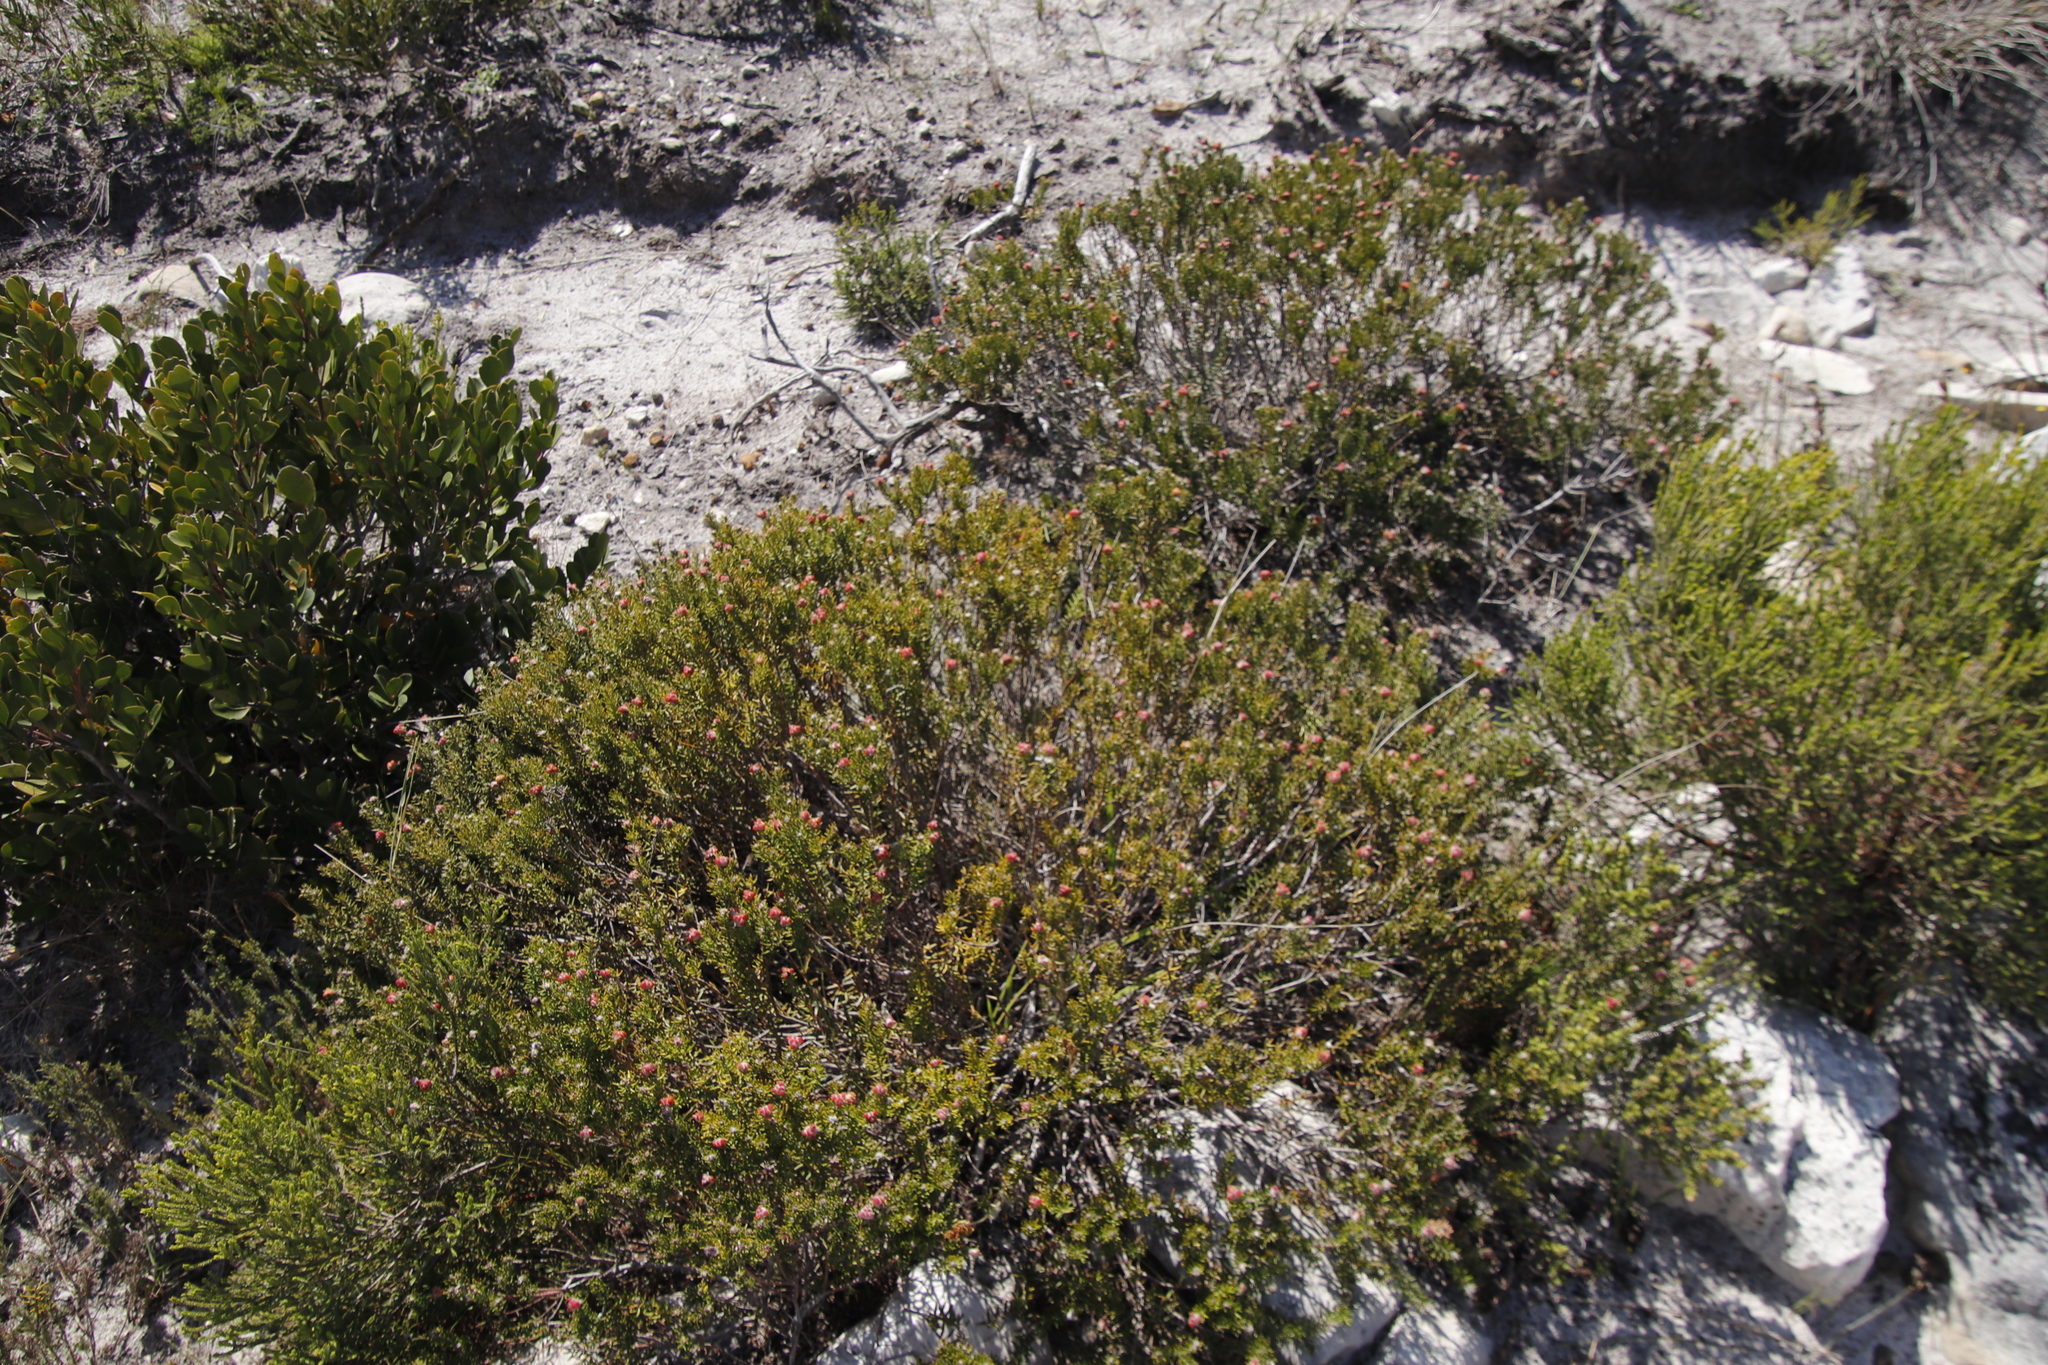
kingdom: Plantae
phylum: Tracheophyta
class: Magnoliopsida
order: Rosales
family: Rhamnaceae
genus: Trichocephalus
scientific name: Trichocephalus stipularis
